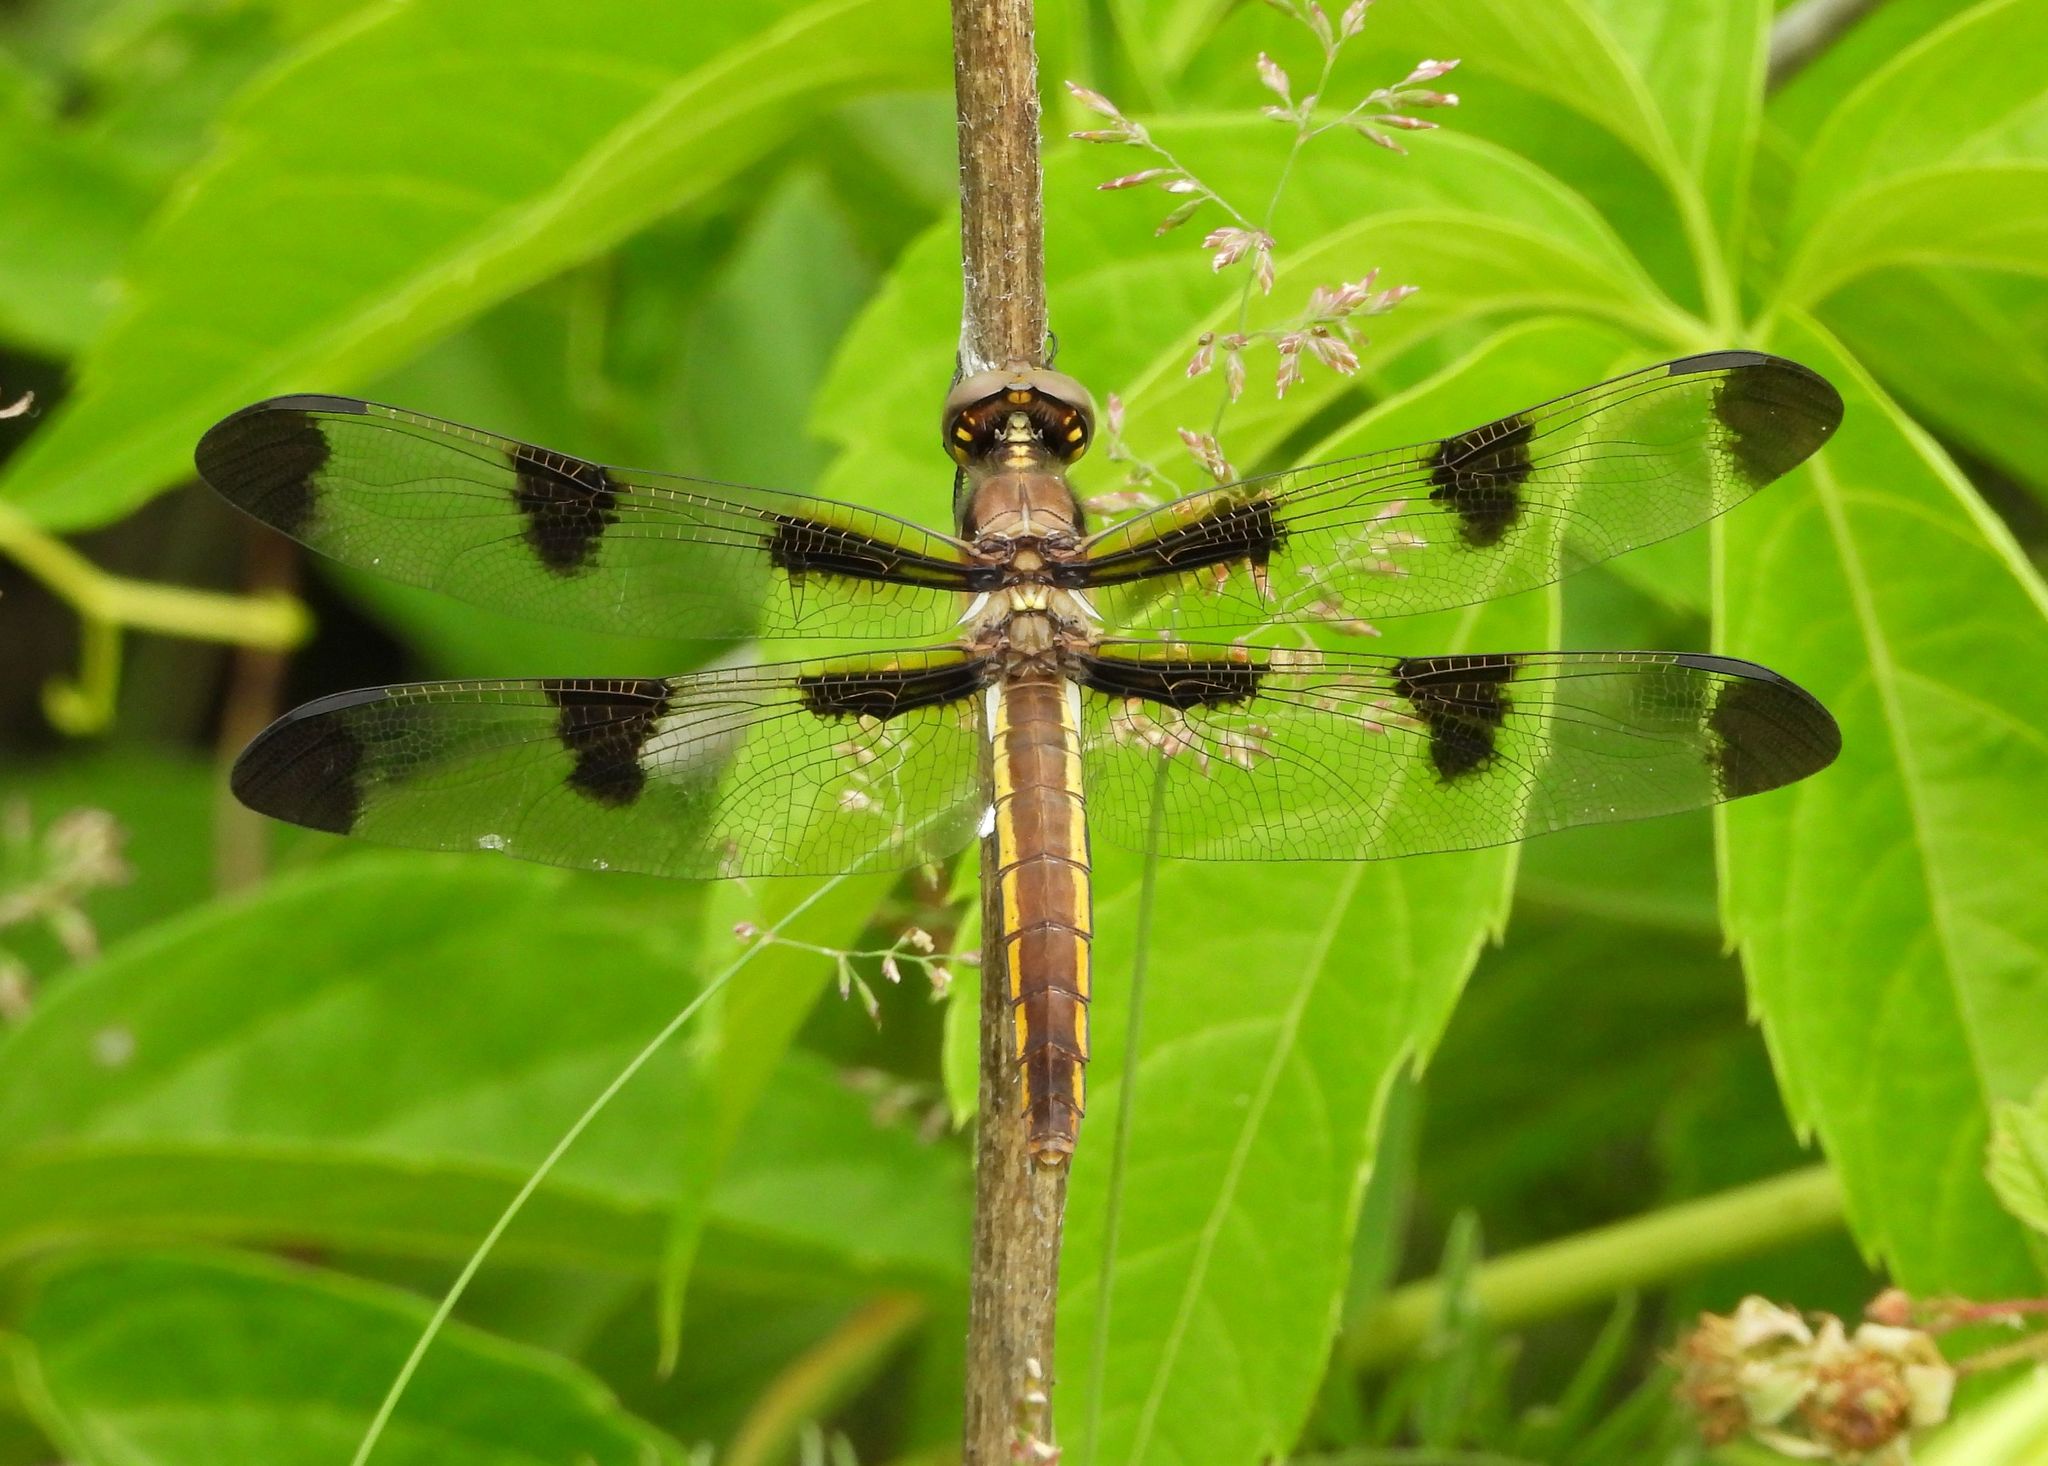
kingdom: Animalia
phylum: Arthropoda
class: Insecta
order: Odonata
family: Libellulidae
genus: Libellula
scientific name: Libellula pulchella
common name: Twelve-spotted skimmer
